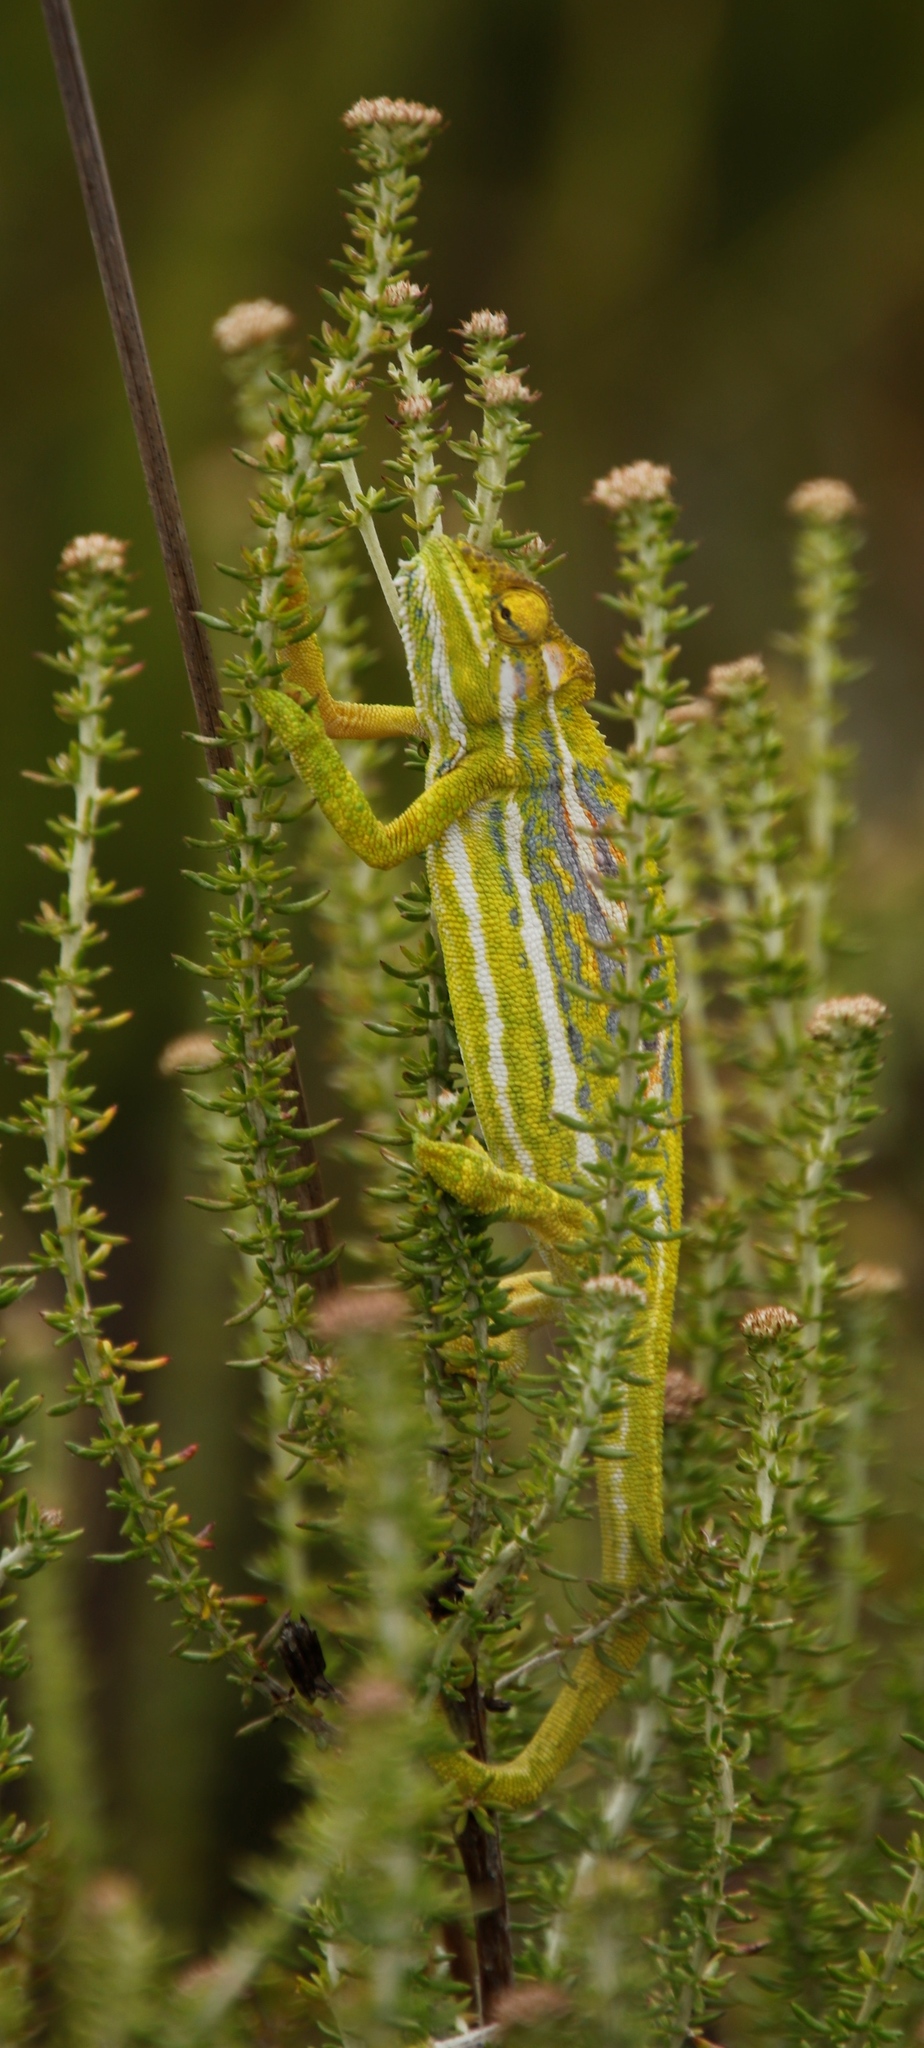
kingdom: Animalia
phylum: Chordata
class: Squamata
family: Chamaeleonidae
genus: Bradypodion
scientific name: Bradypodion pumilum
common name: Cape dwarf chameleon
